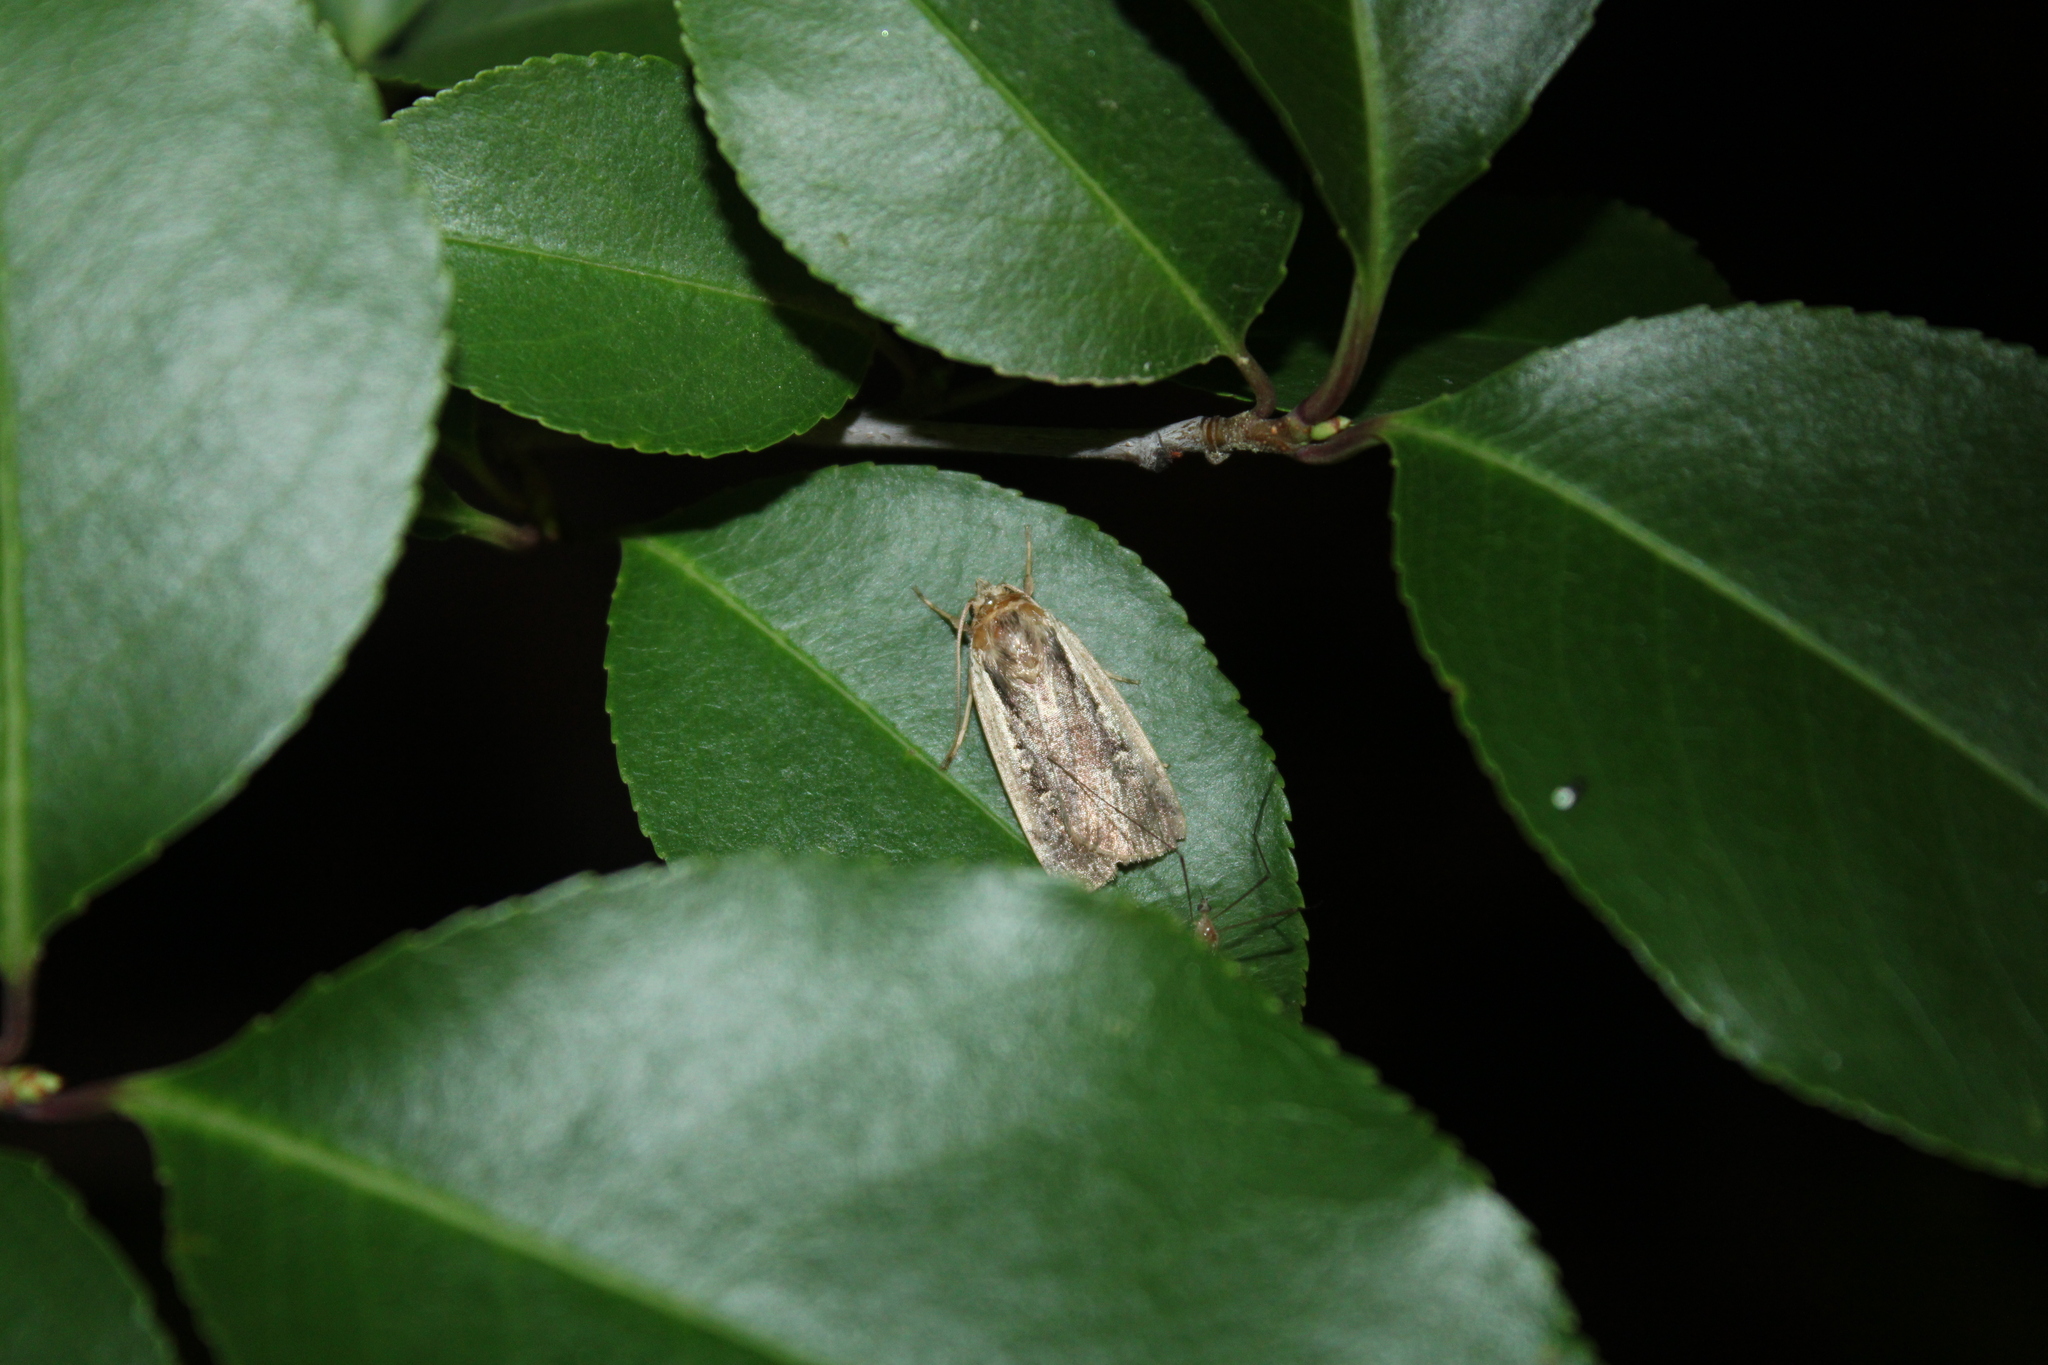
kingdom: Animalia
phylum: Arthropoda
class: Insecta
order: Lepidoptera
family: Noctuidae
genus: Ochropleura
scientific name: Ochropleura implecta
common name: Flame-shouldered dart
